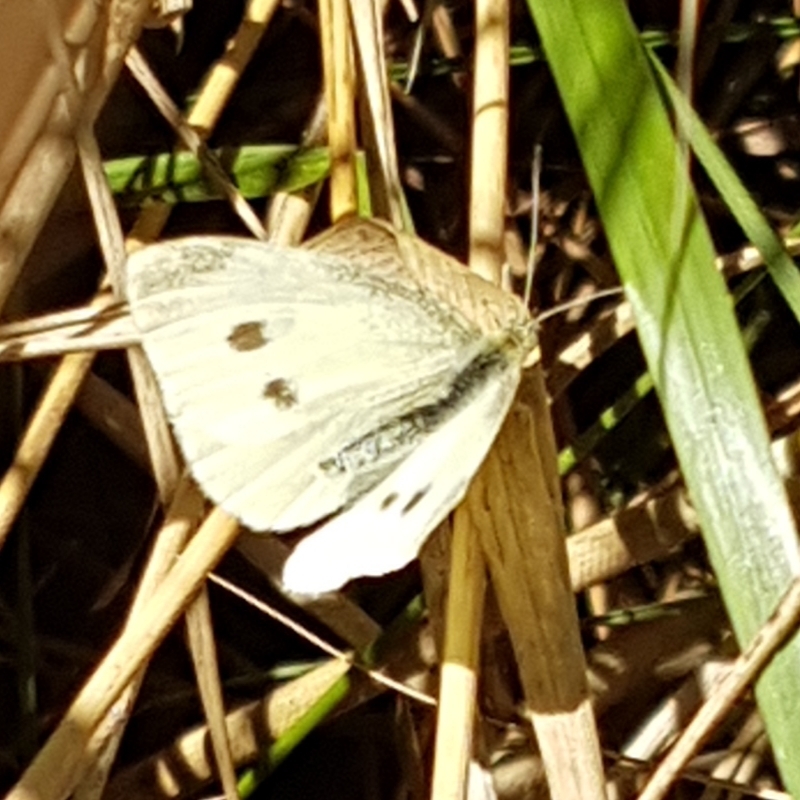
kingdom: Animalia
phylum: Arthropoda
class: Insecta
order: Lepidoptera
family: Pieridae
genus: Pieris
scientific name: Pieris rapae
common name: Small white
